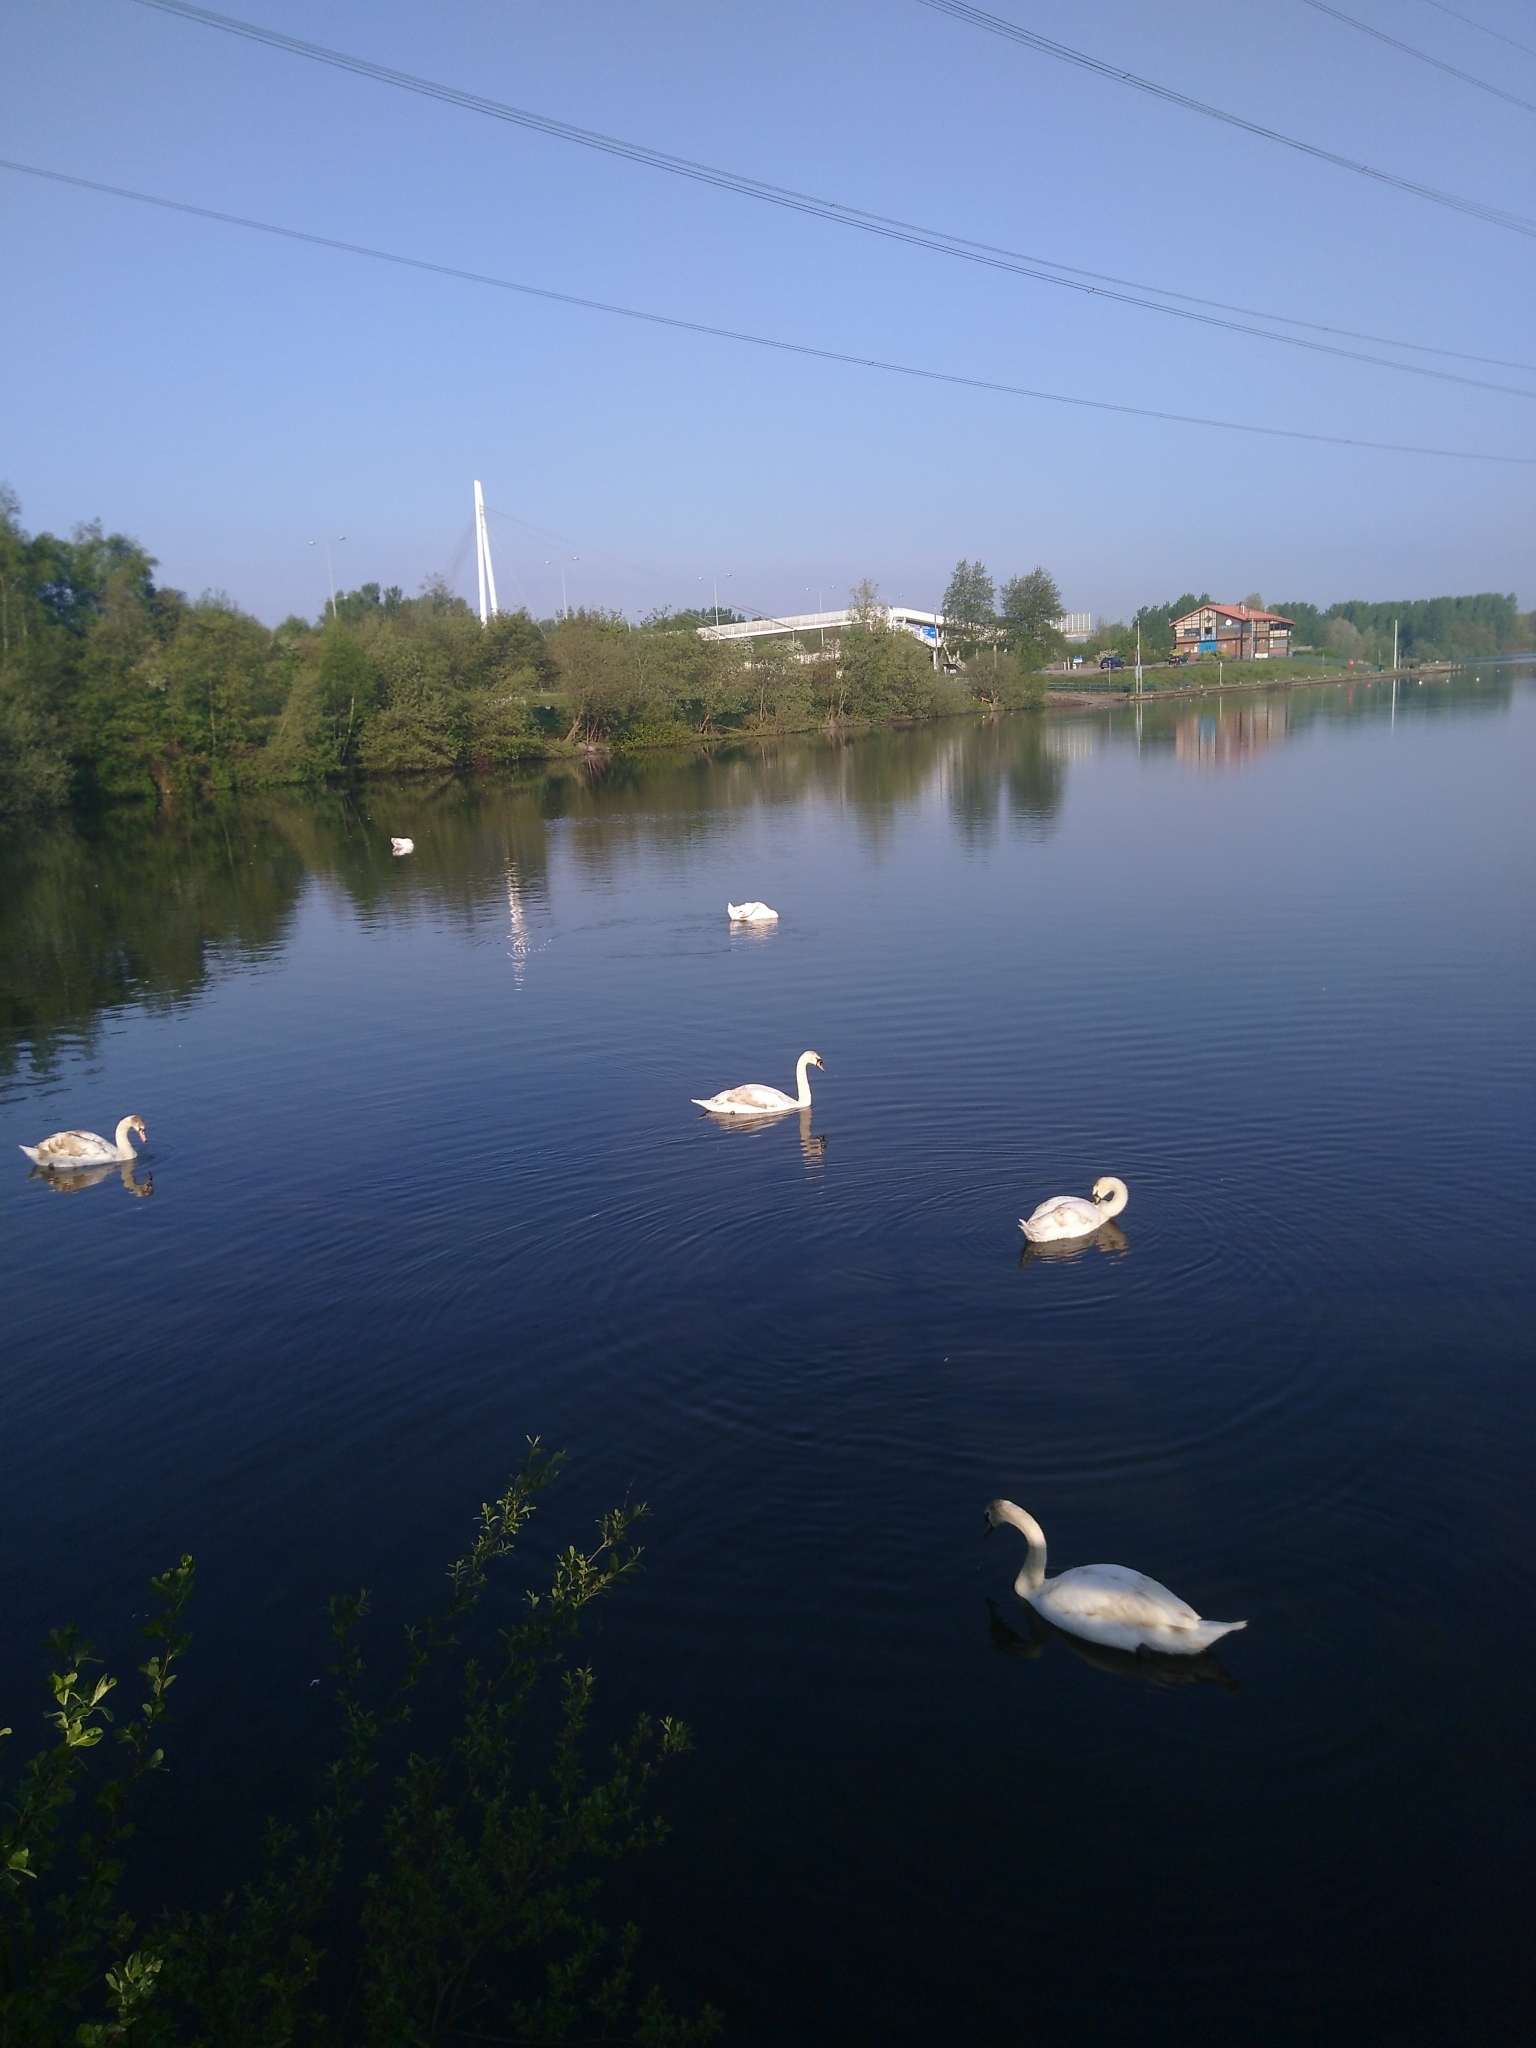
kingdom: Animalia
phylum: Chordata
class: Aves
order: Anseriformes
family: Anatidae
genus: Cygnus
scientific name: Cygnus olor
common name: Mute swan
